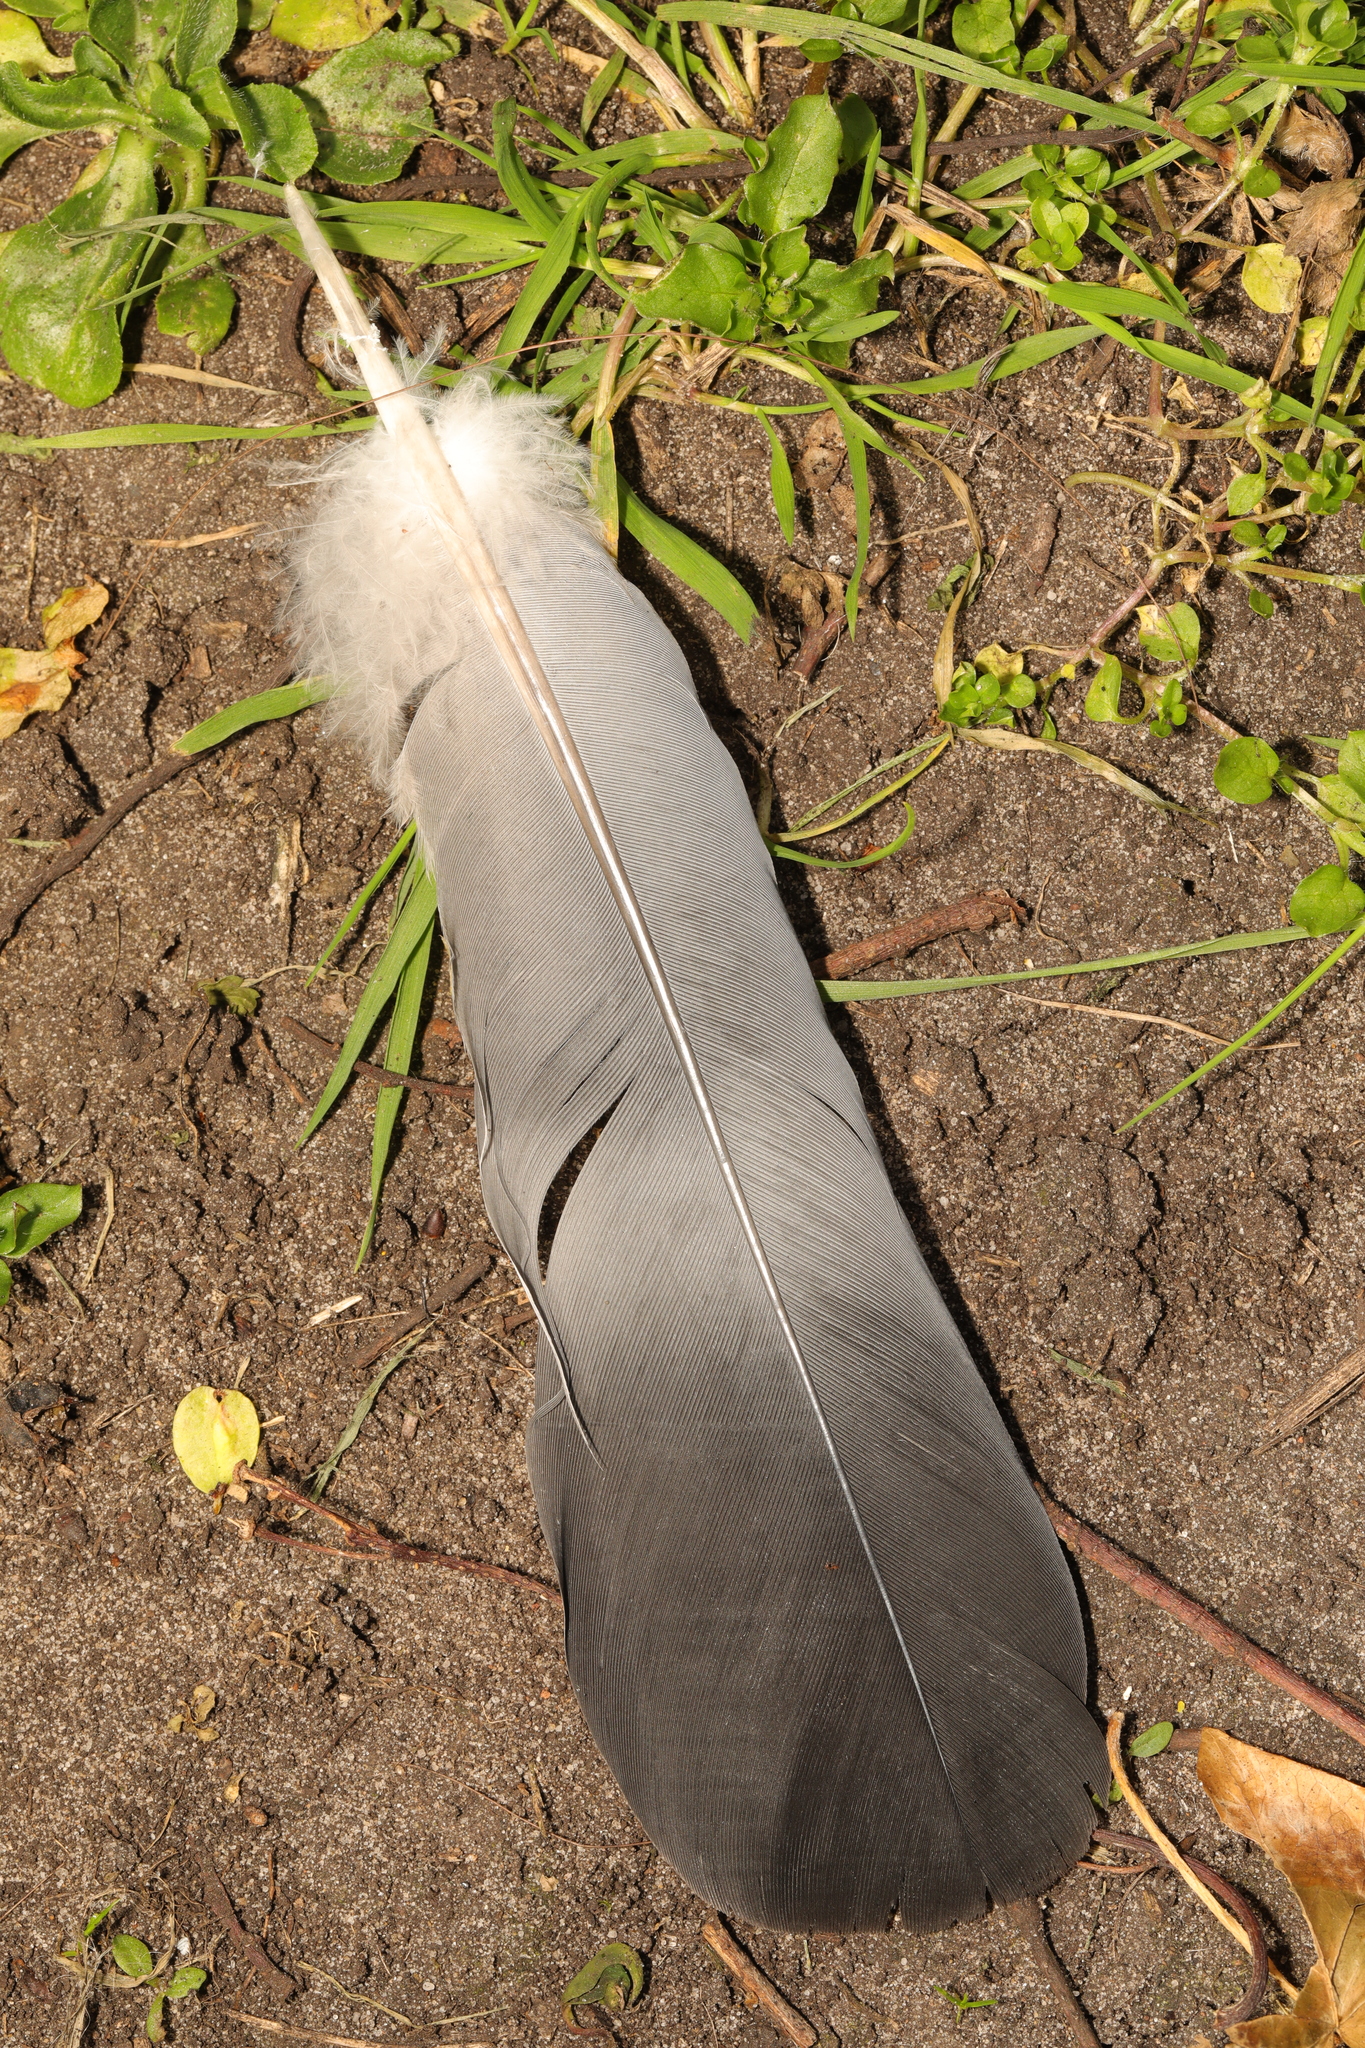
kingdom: Animalia
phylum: Chordata
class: Aves
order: Columbiformes
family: Columbidae
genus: Columba
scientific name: Columba palumbus
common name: Common wood pigeon
